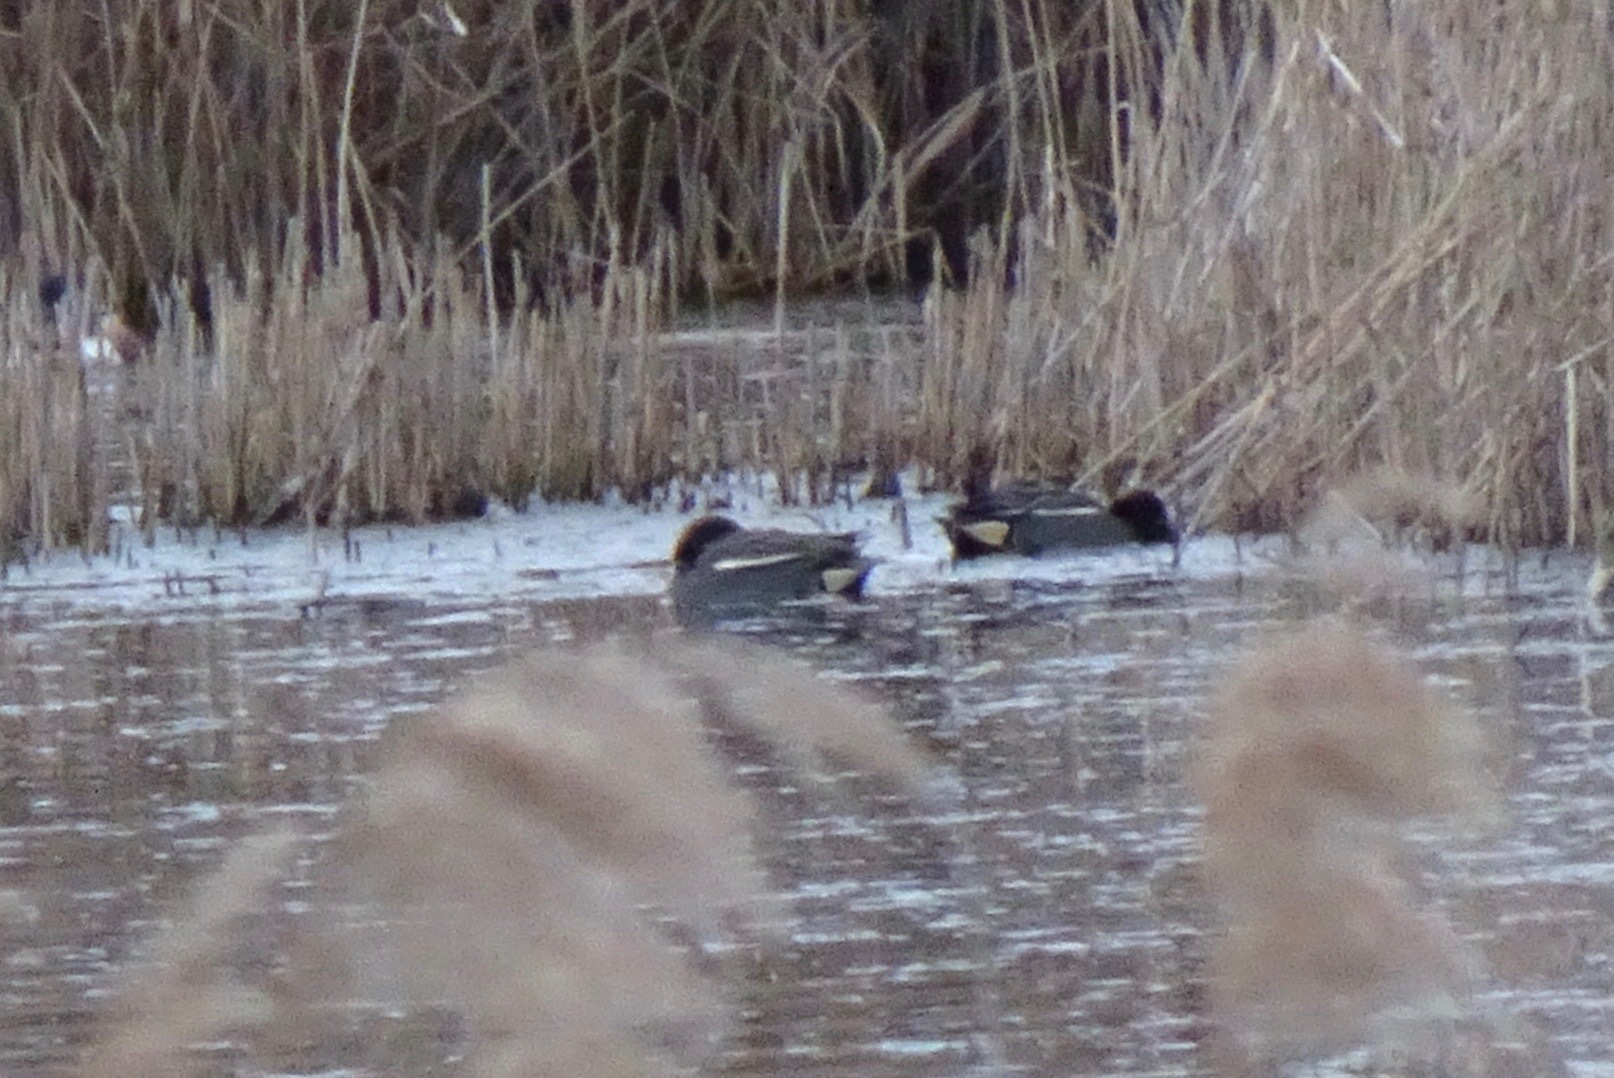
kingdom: Animalia
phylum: Chordata
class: Aves
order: Anseriformes
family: Anatidae
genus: Anas
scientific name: Anas crecca
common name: Eurasian teal
